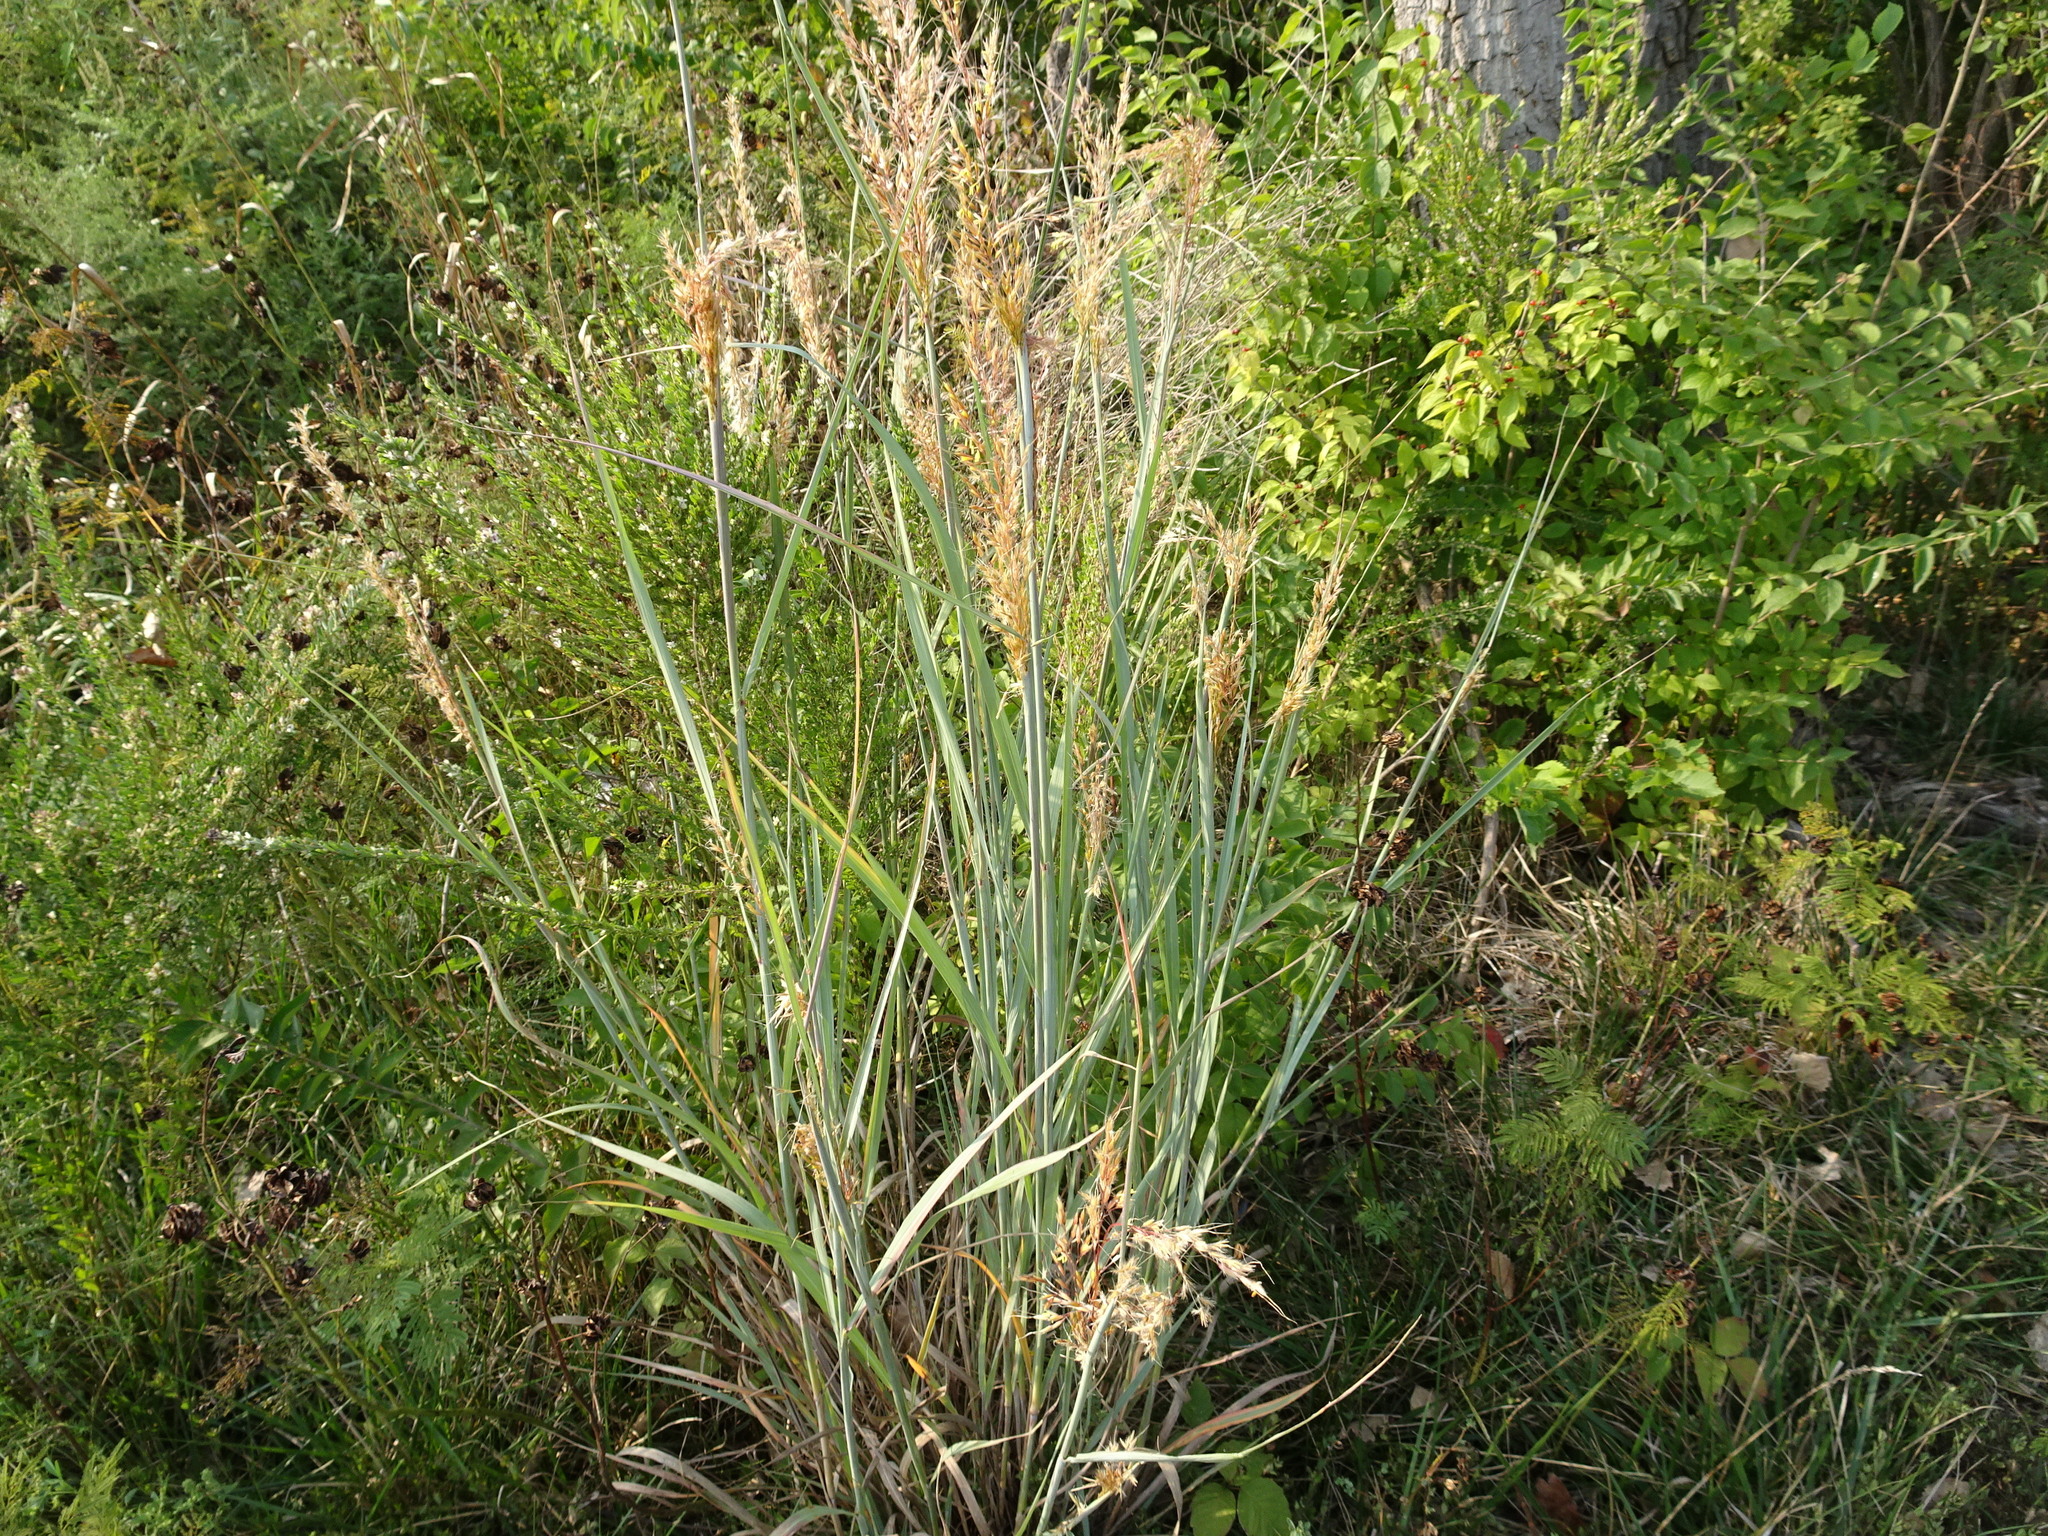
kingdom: Plantae
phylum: Tracheophyta
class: Liliopsida
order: Poales
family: Poaceae
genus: Sorghastrum
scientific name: Sorghastrum nutans
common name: Indian grass
